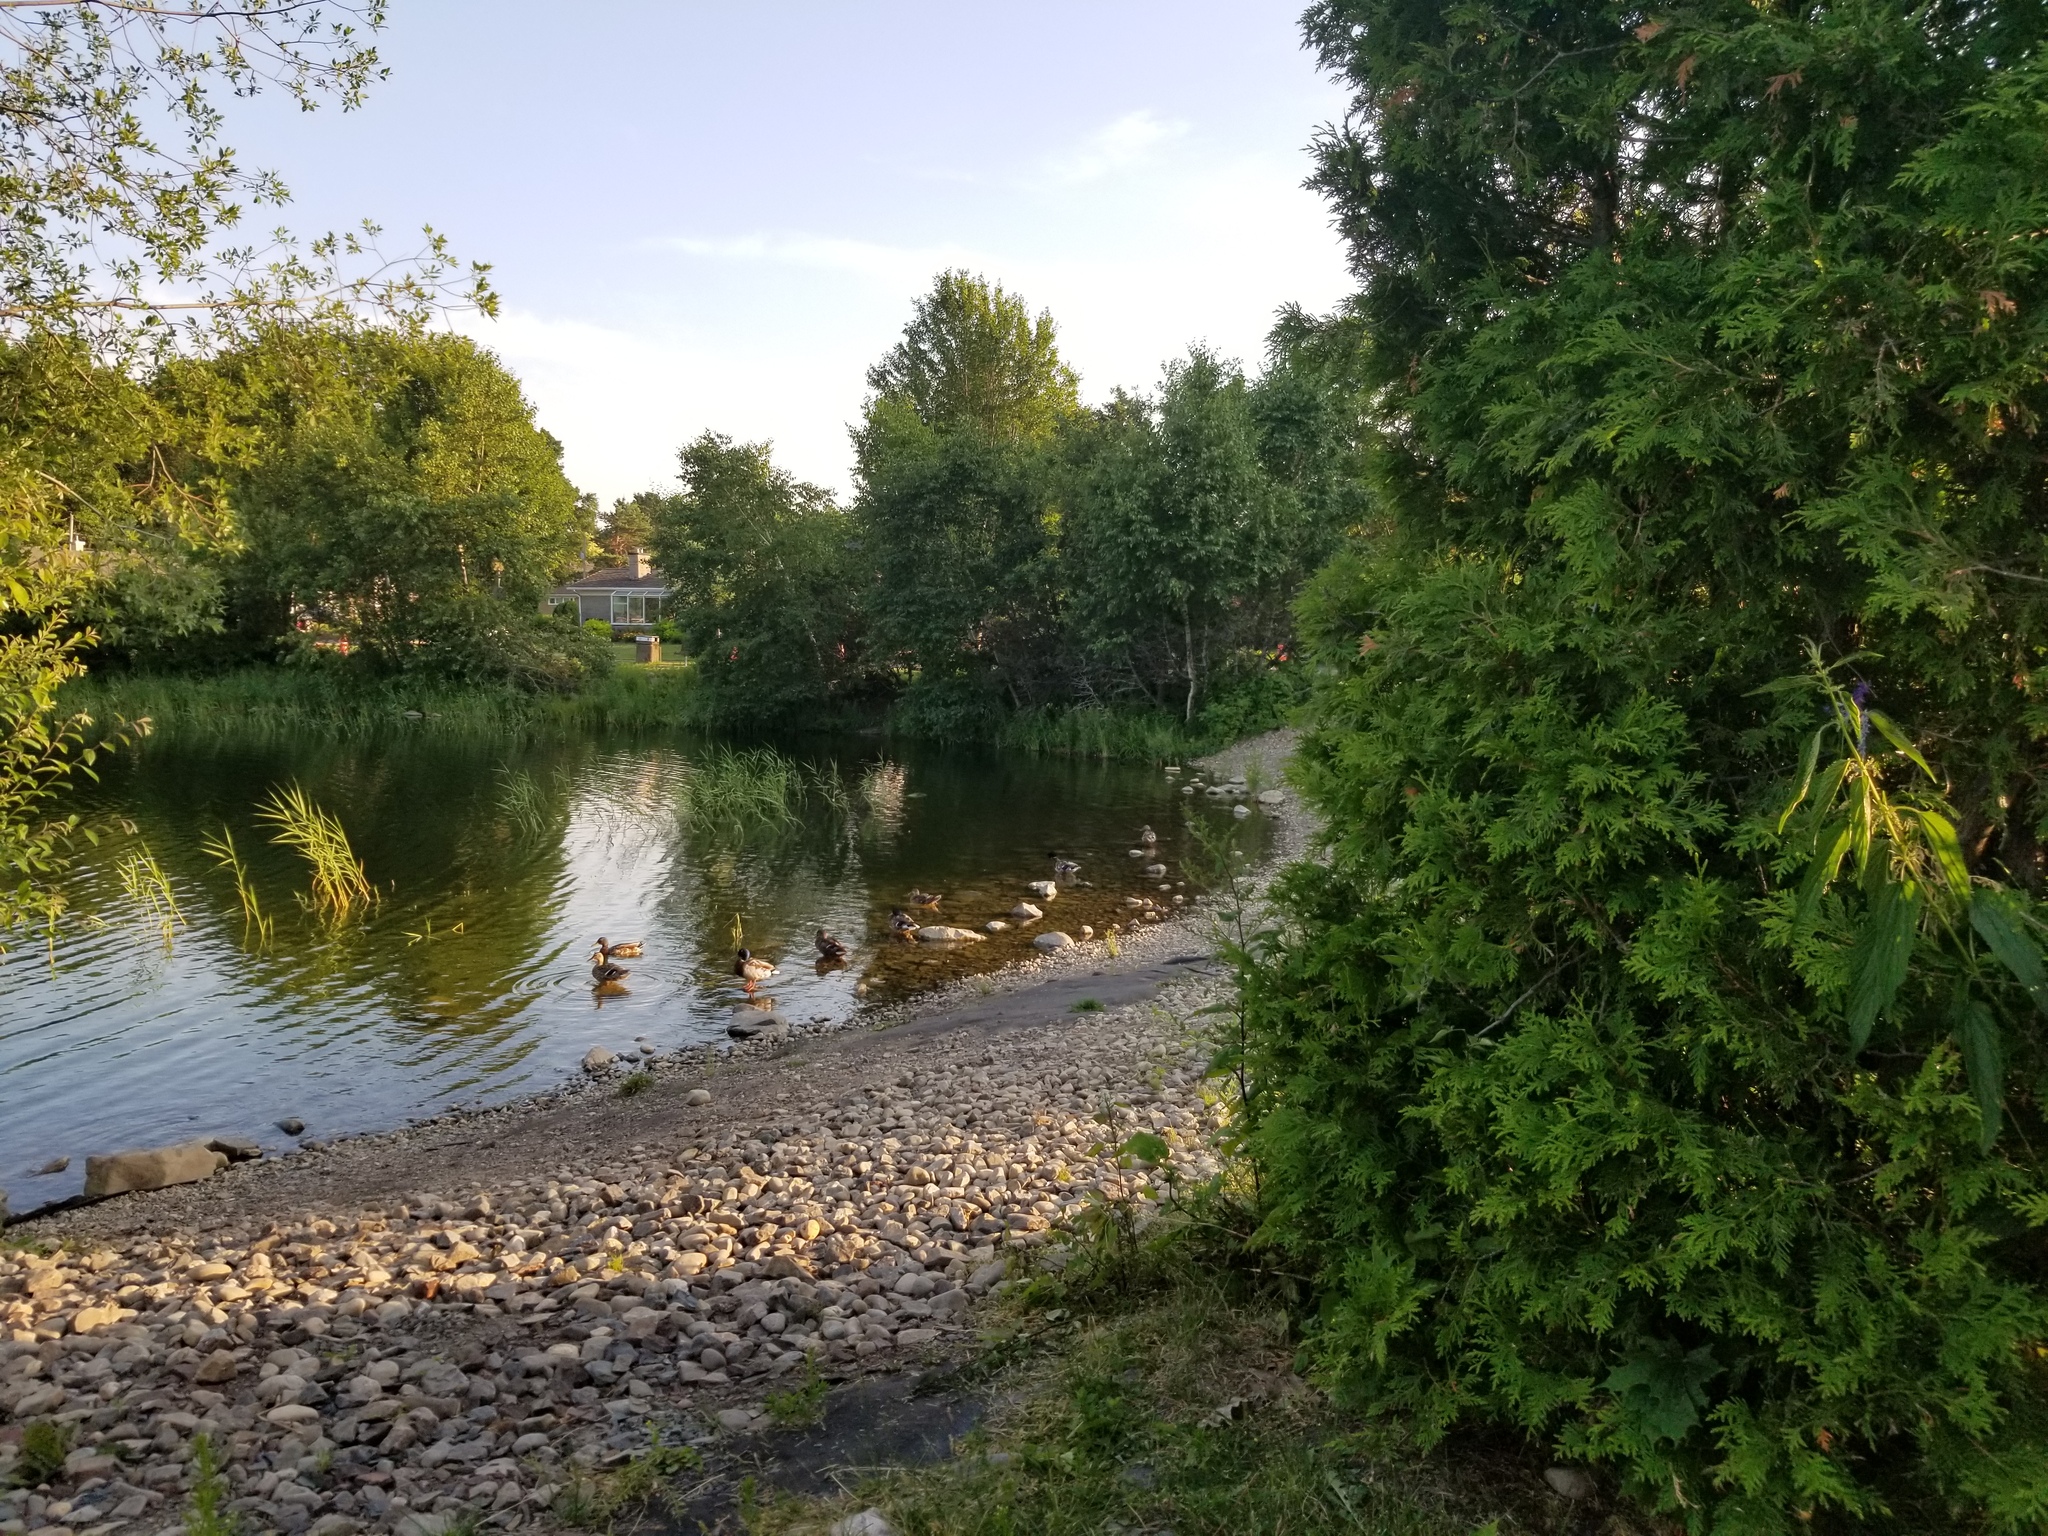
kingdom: Animalia
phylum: Chordata
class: Aves
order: Anseriformes
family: Anatidae
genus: Anas
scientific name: Anas platyrhynchos
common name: Mallard
